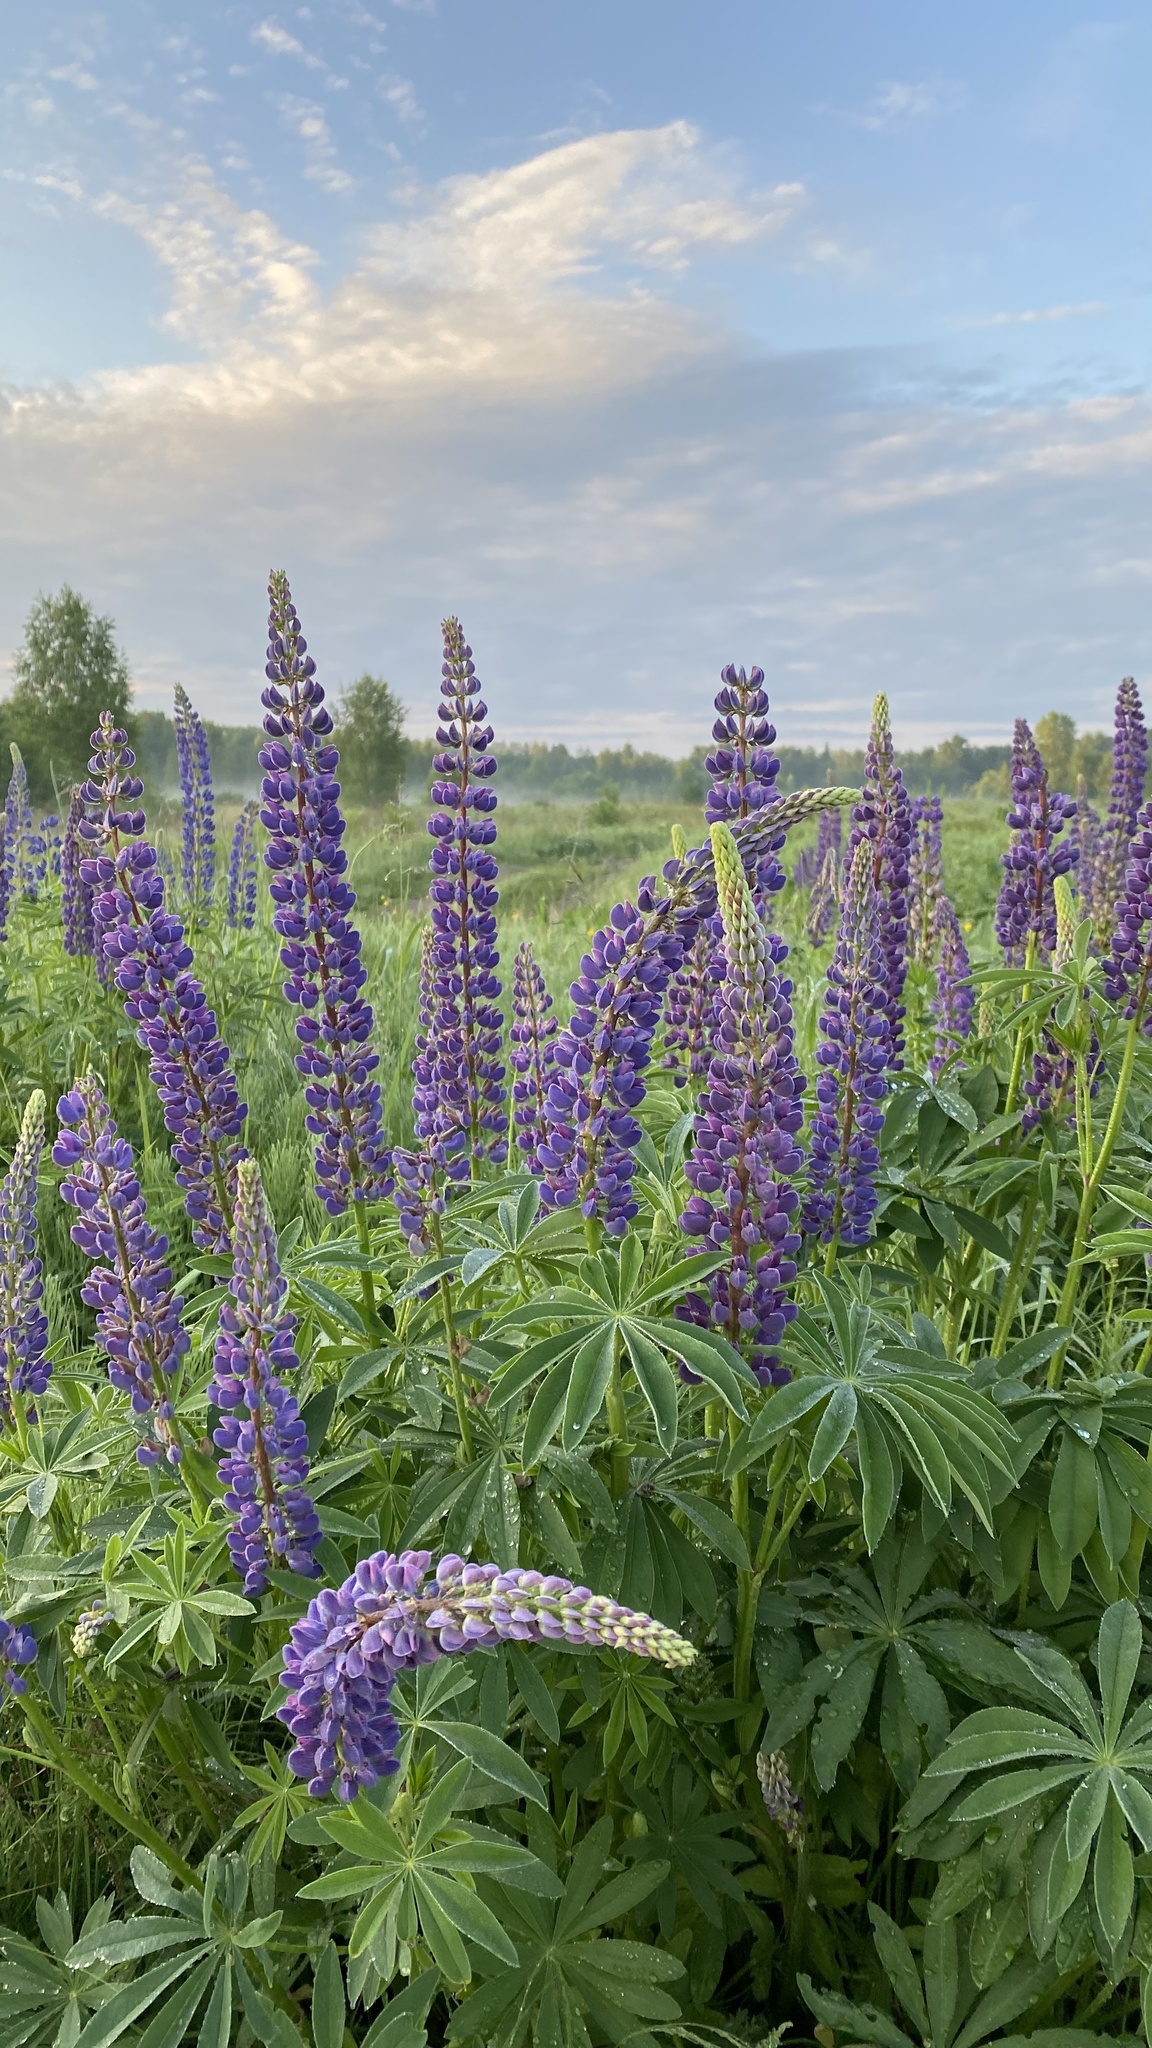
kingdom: Plantae
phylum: Tracheophyta
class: Magnoliopsida
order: Fabales
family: Fabaceae
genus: Lupinus
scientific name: Lupinus polyphyllus
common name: Garden lupin
